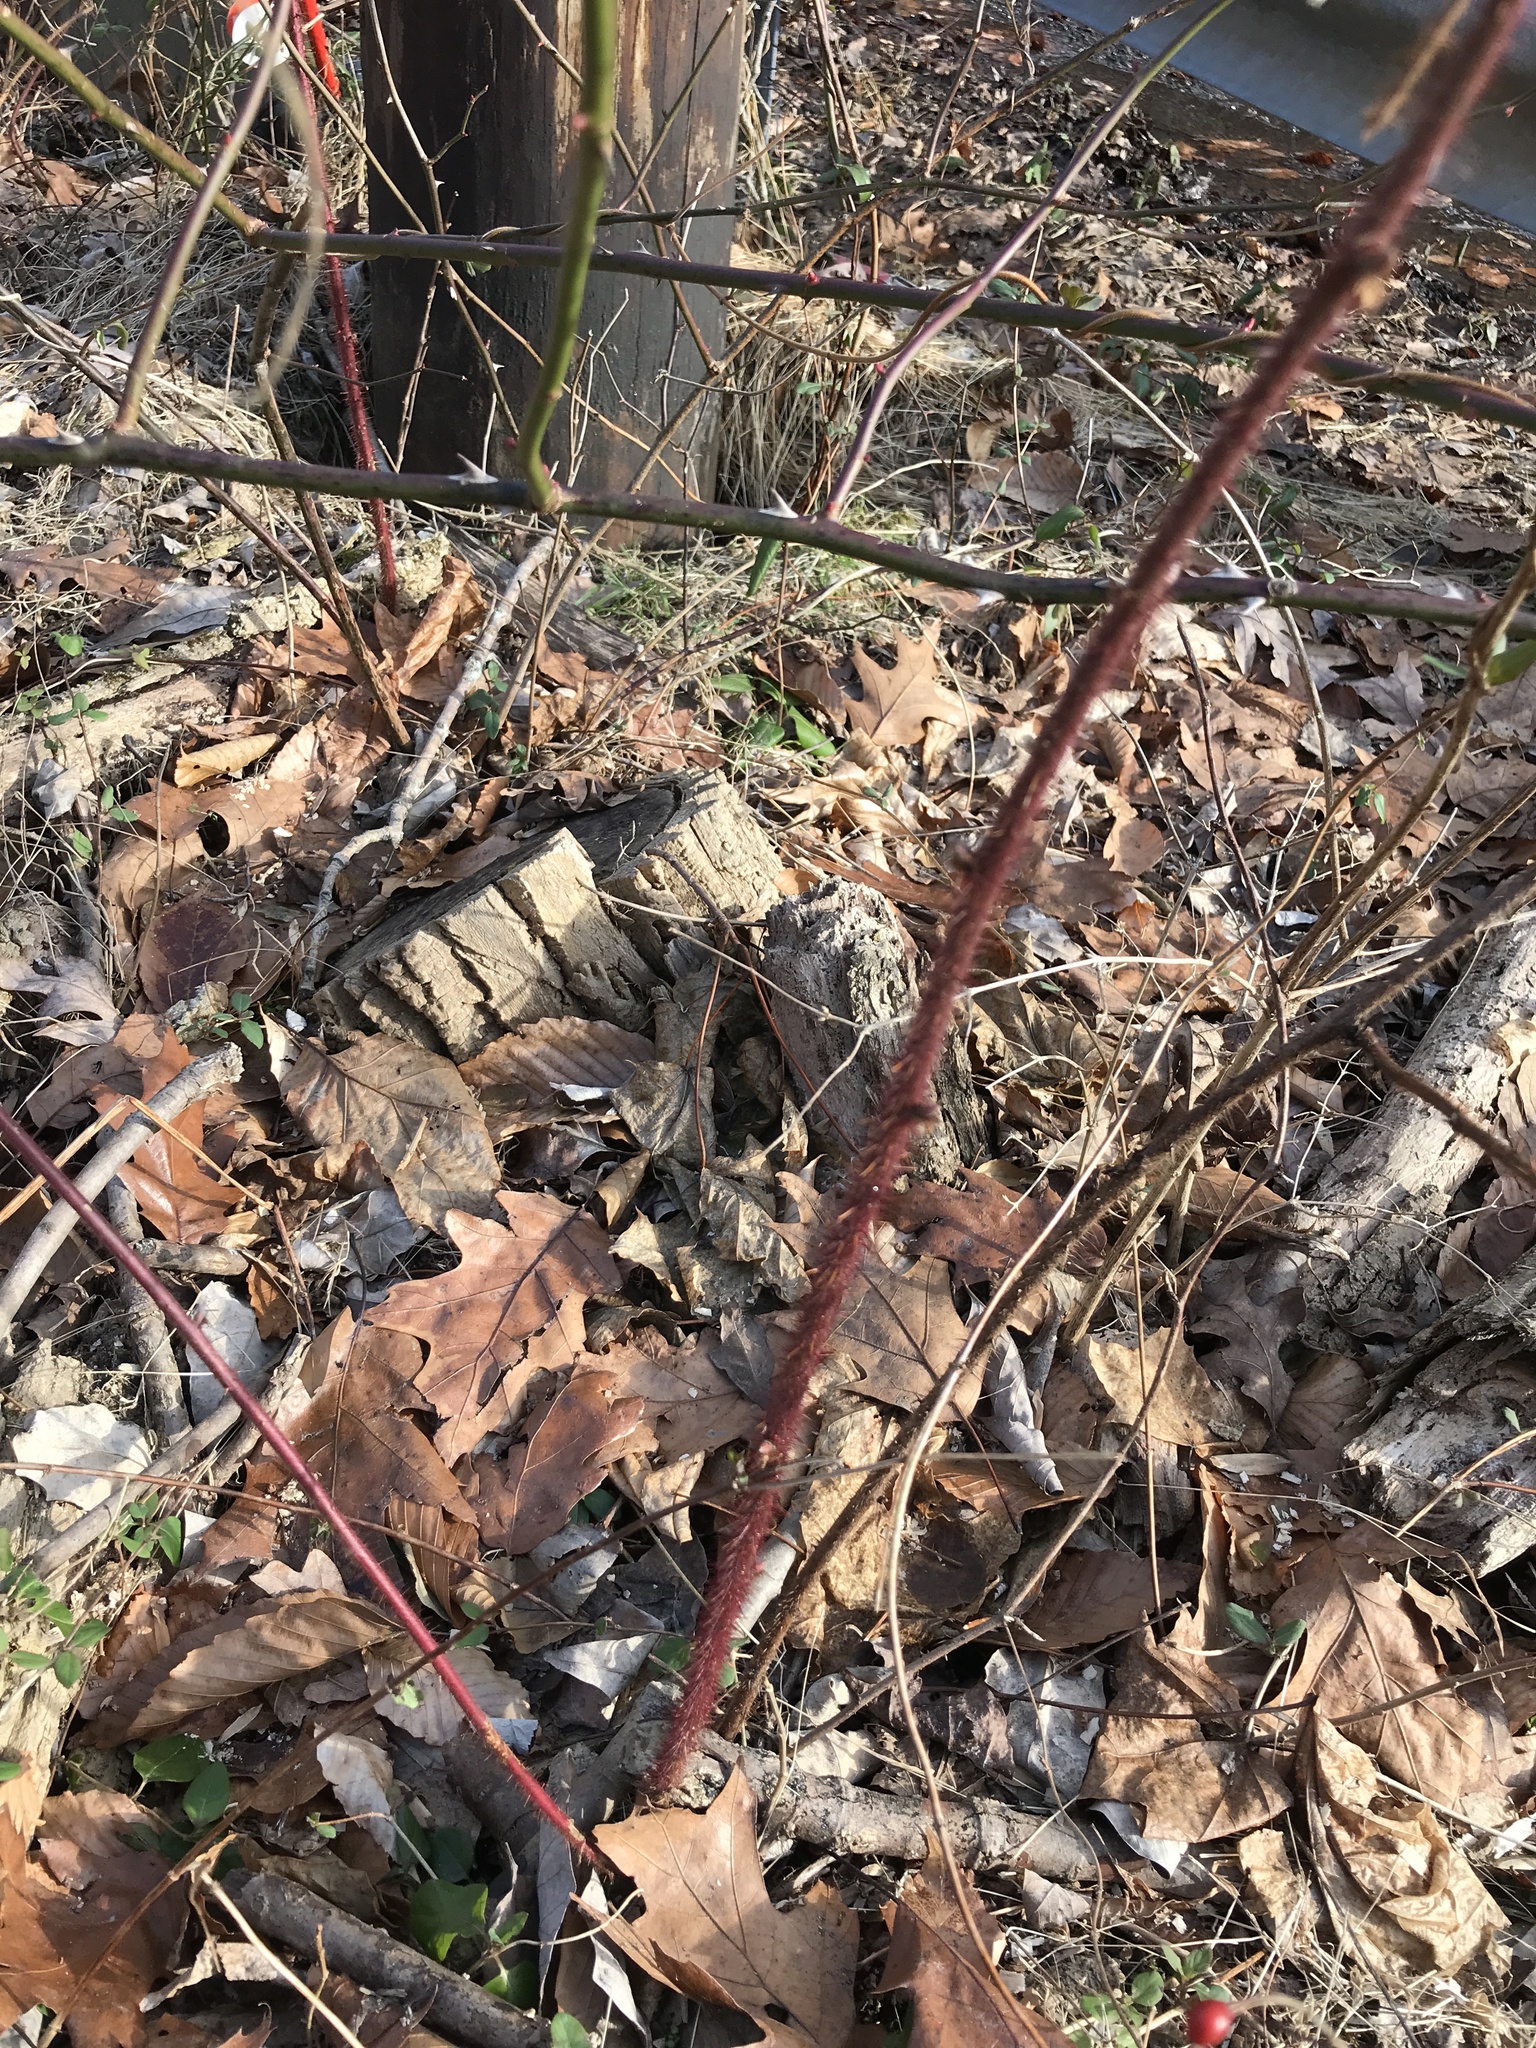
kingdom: Plantae
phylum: Tracheophyta
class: Magnoliopsida
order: Rosales
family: Rosaceae
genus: Rubus
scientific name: Rubus phoenicolasius
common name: Japanese wineberry
